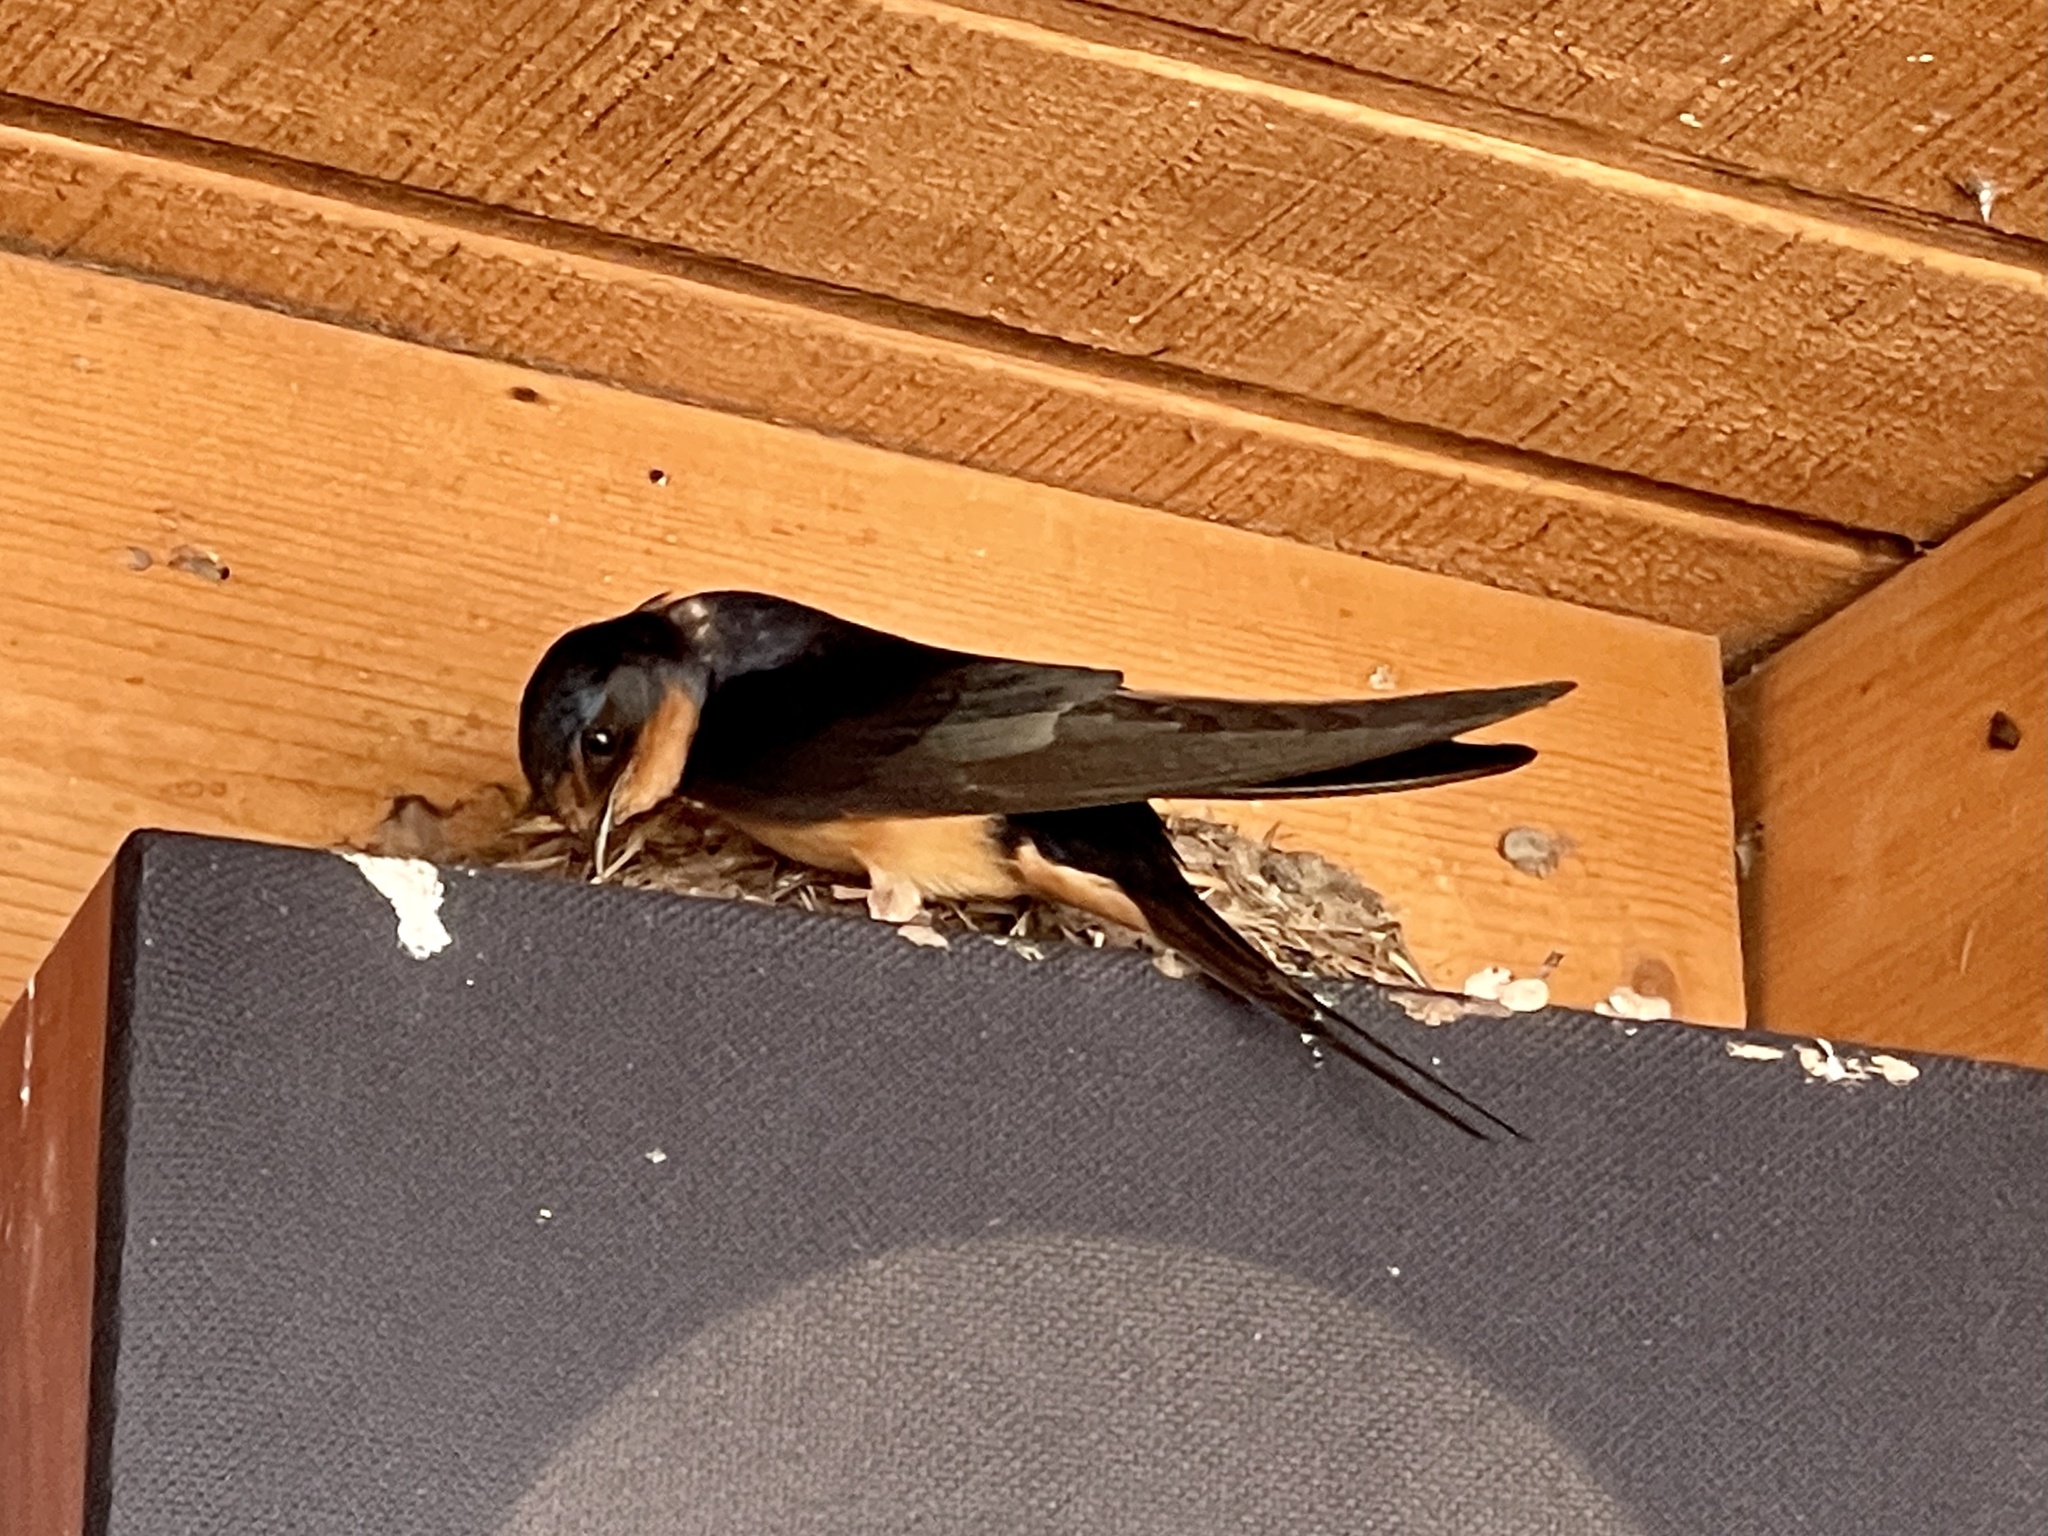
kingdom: Animalia
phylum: Chordata
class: Aves
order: Passeriformes
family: Hirundinidae
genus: Hirundo
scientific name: Hirundo rustica
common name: Barn swallow
